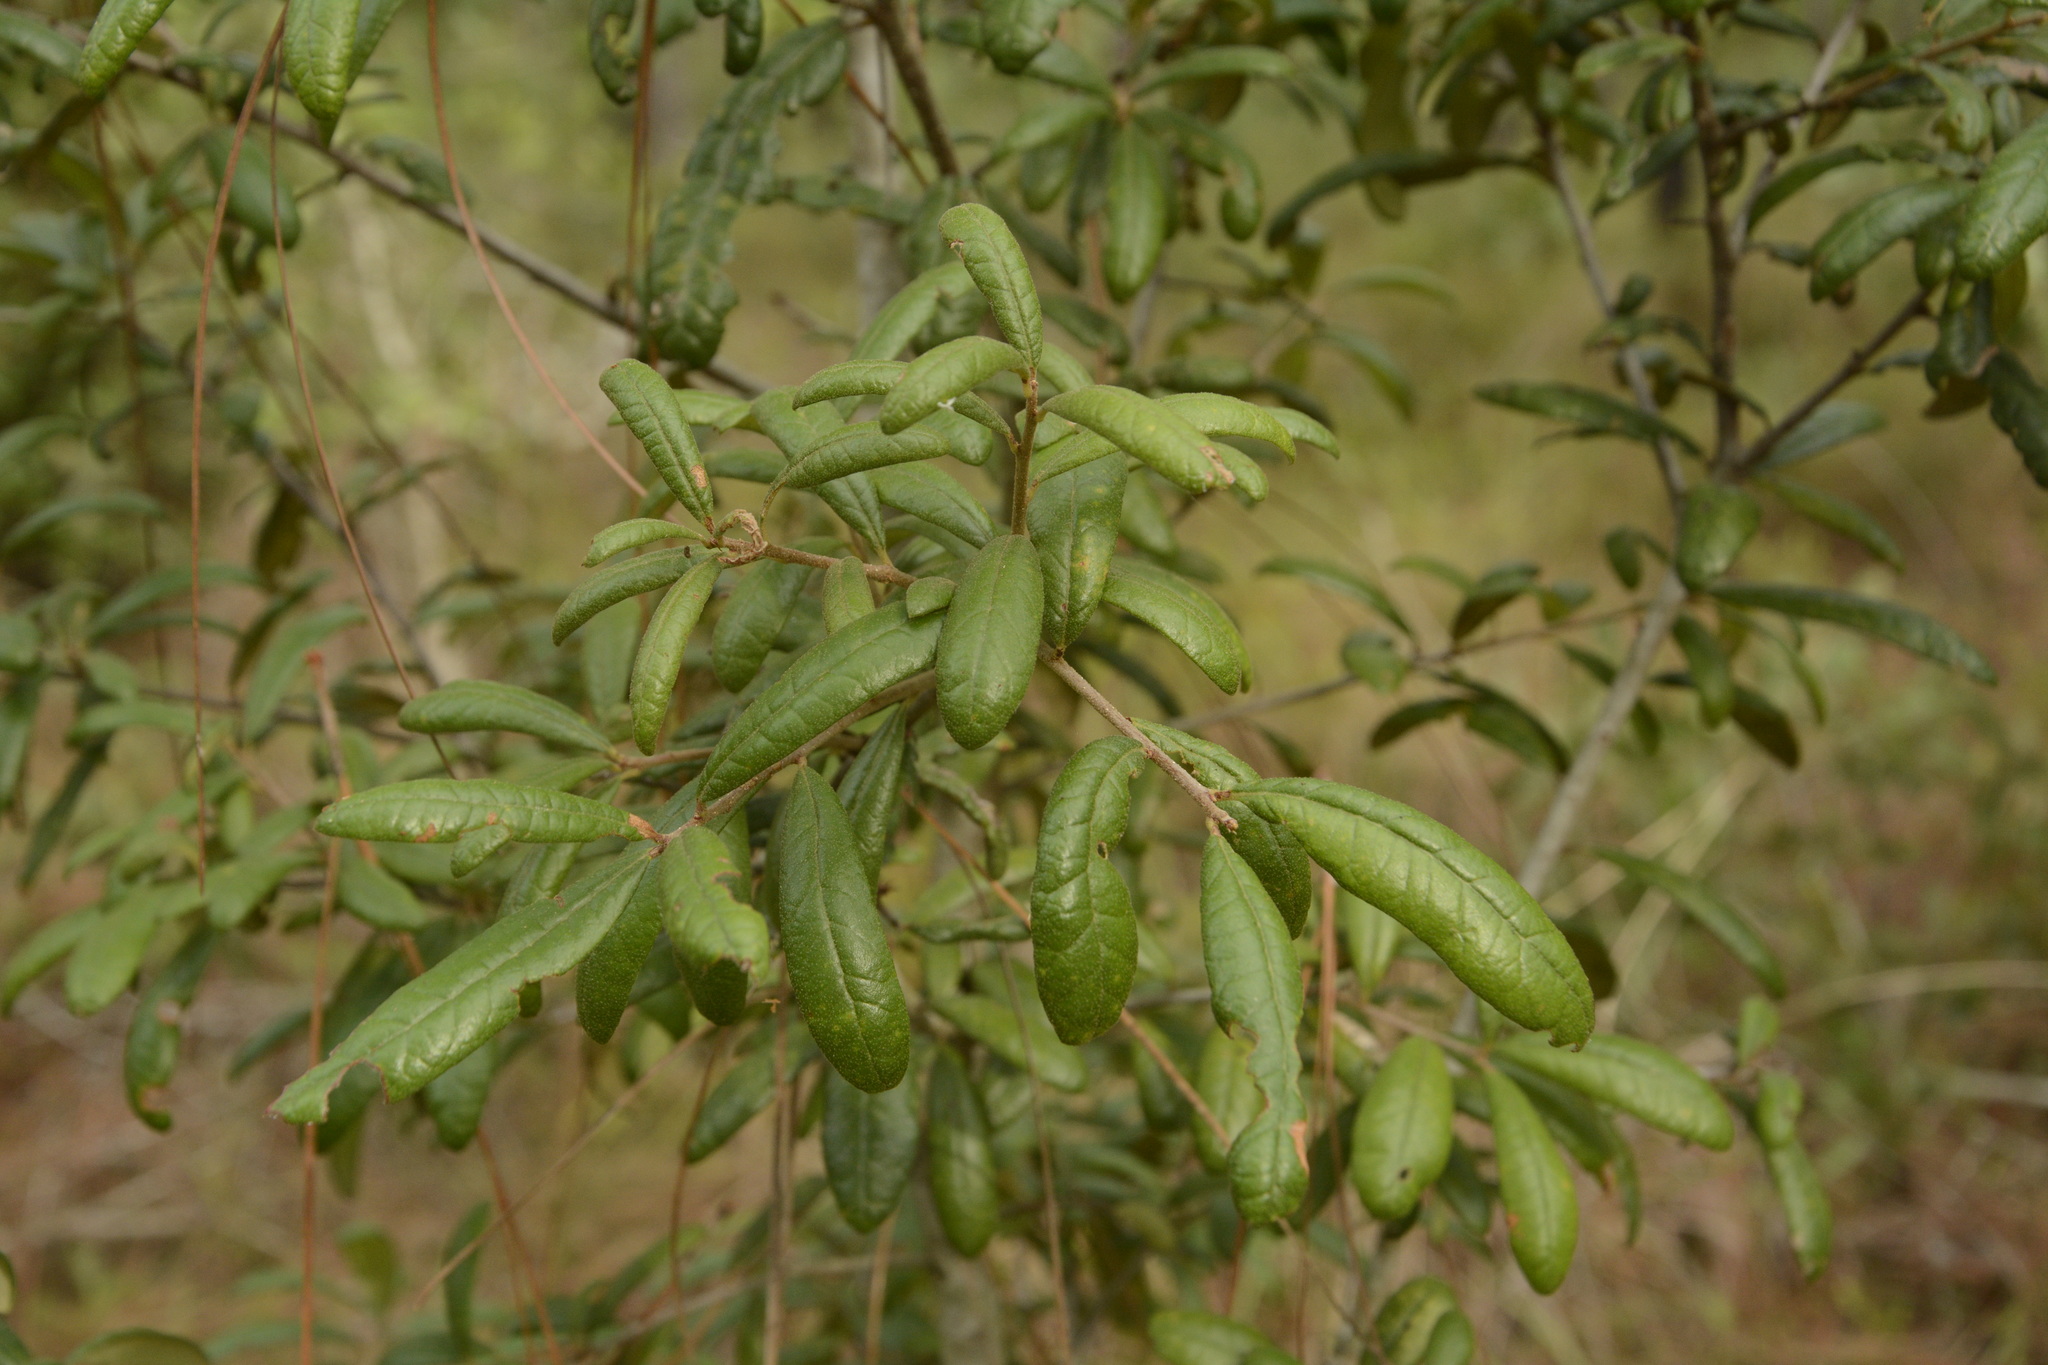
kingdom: Plantae
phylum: Tracheophyta
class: Magnoliopsida
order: Fagales
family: Fagaceae
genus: Quercus
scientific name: Quercus geminata
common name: Sand live oak
